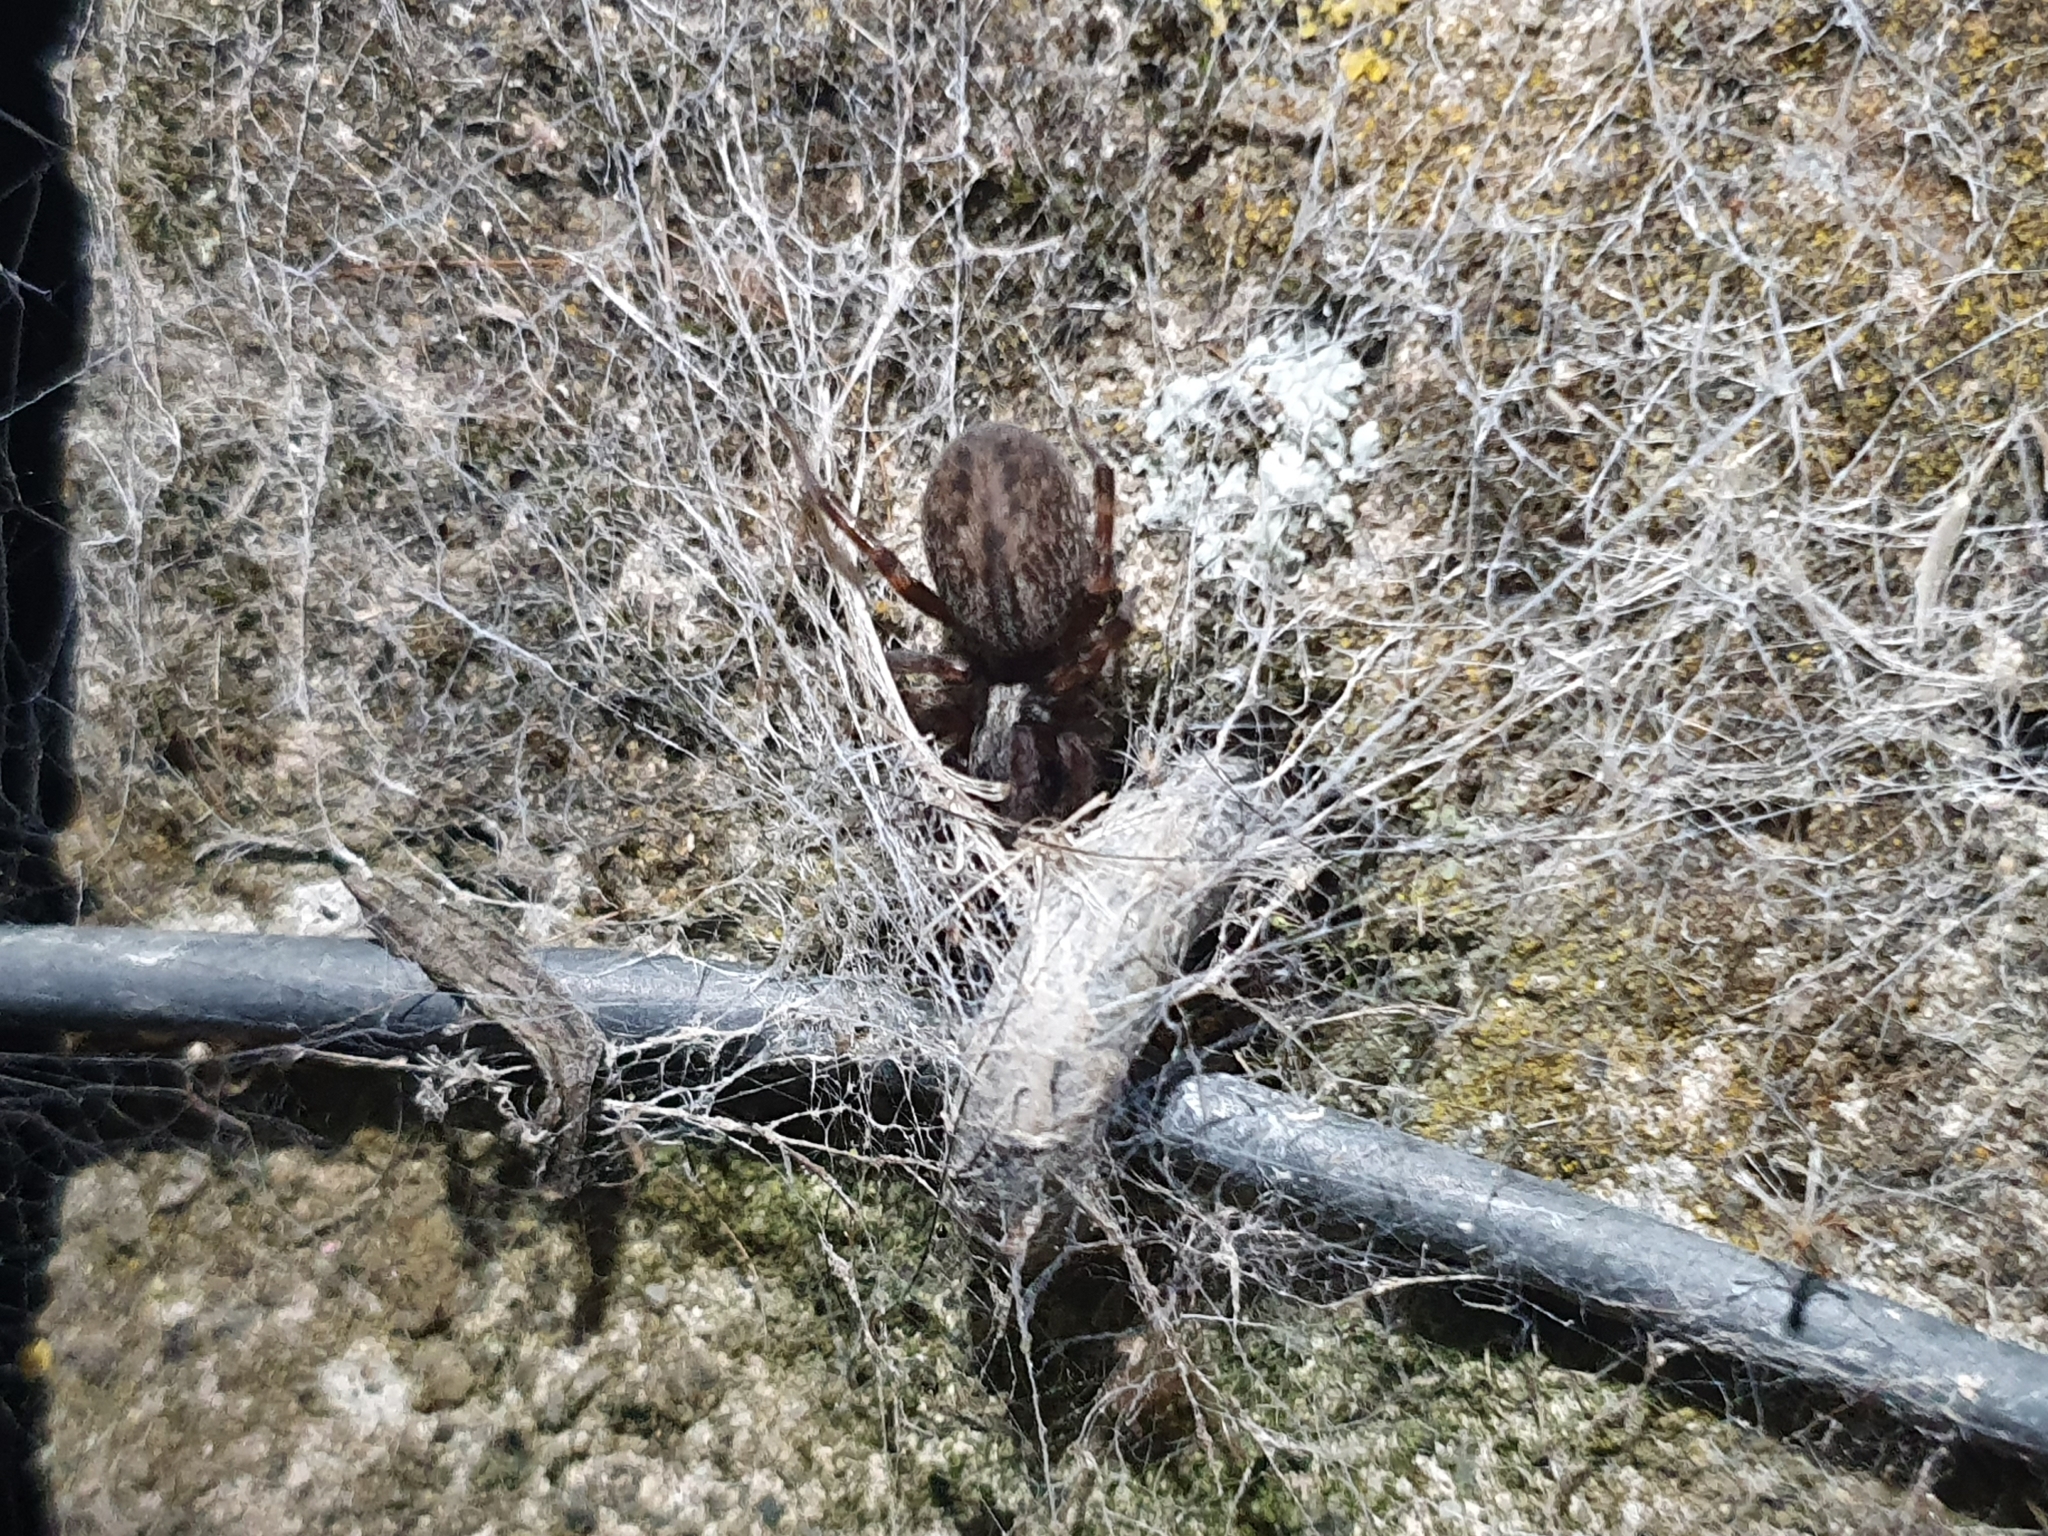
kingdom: Animalia
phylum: Arthropoda
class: Arachnida
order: Araneae
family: Desidae
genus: Badumna
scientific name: Badumna longinqua
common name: Gray house spider
